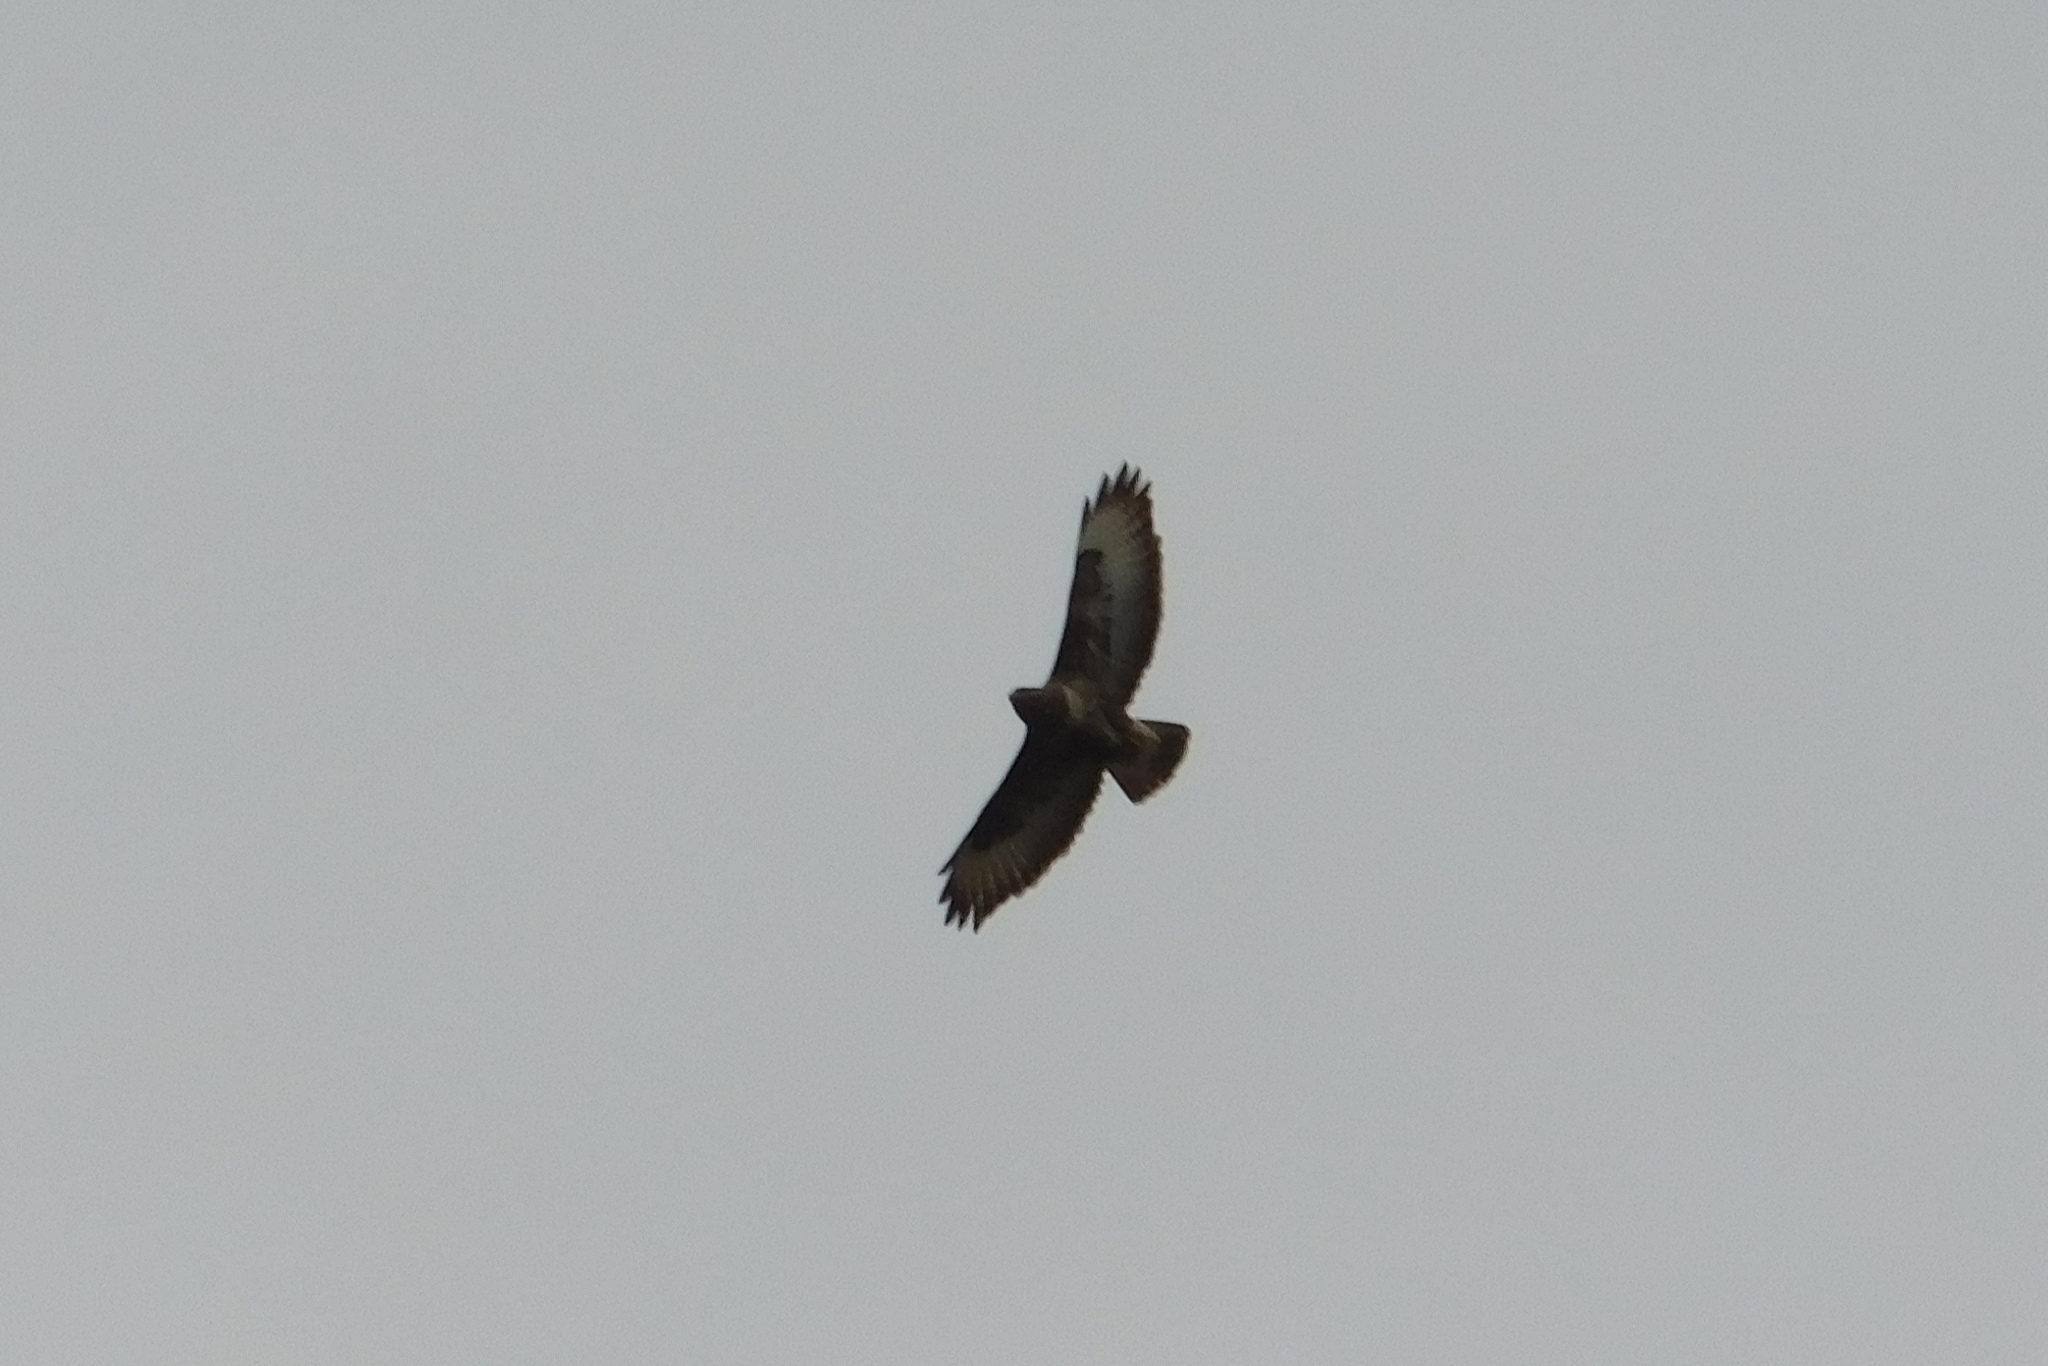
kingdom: Animalia
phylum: Chordata
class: Aves
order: Accipitriformes
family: Accipitridae
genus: Buteo
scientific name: Buteo buteo
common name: Common buzzard
